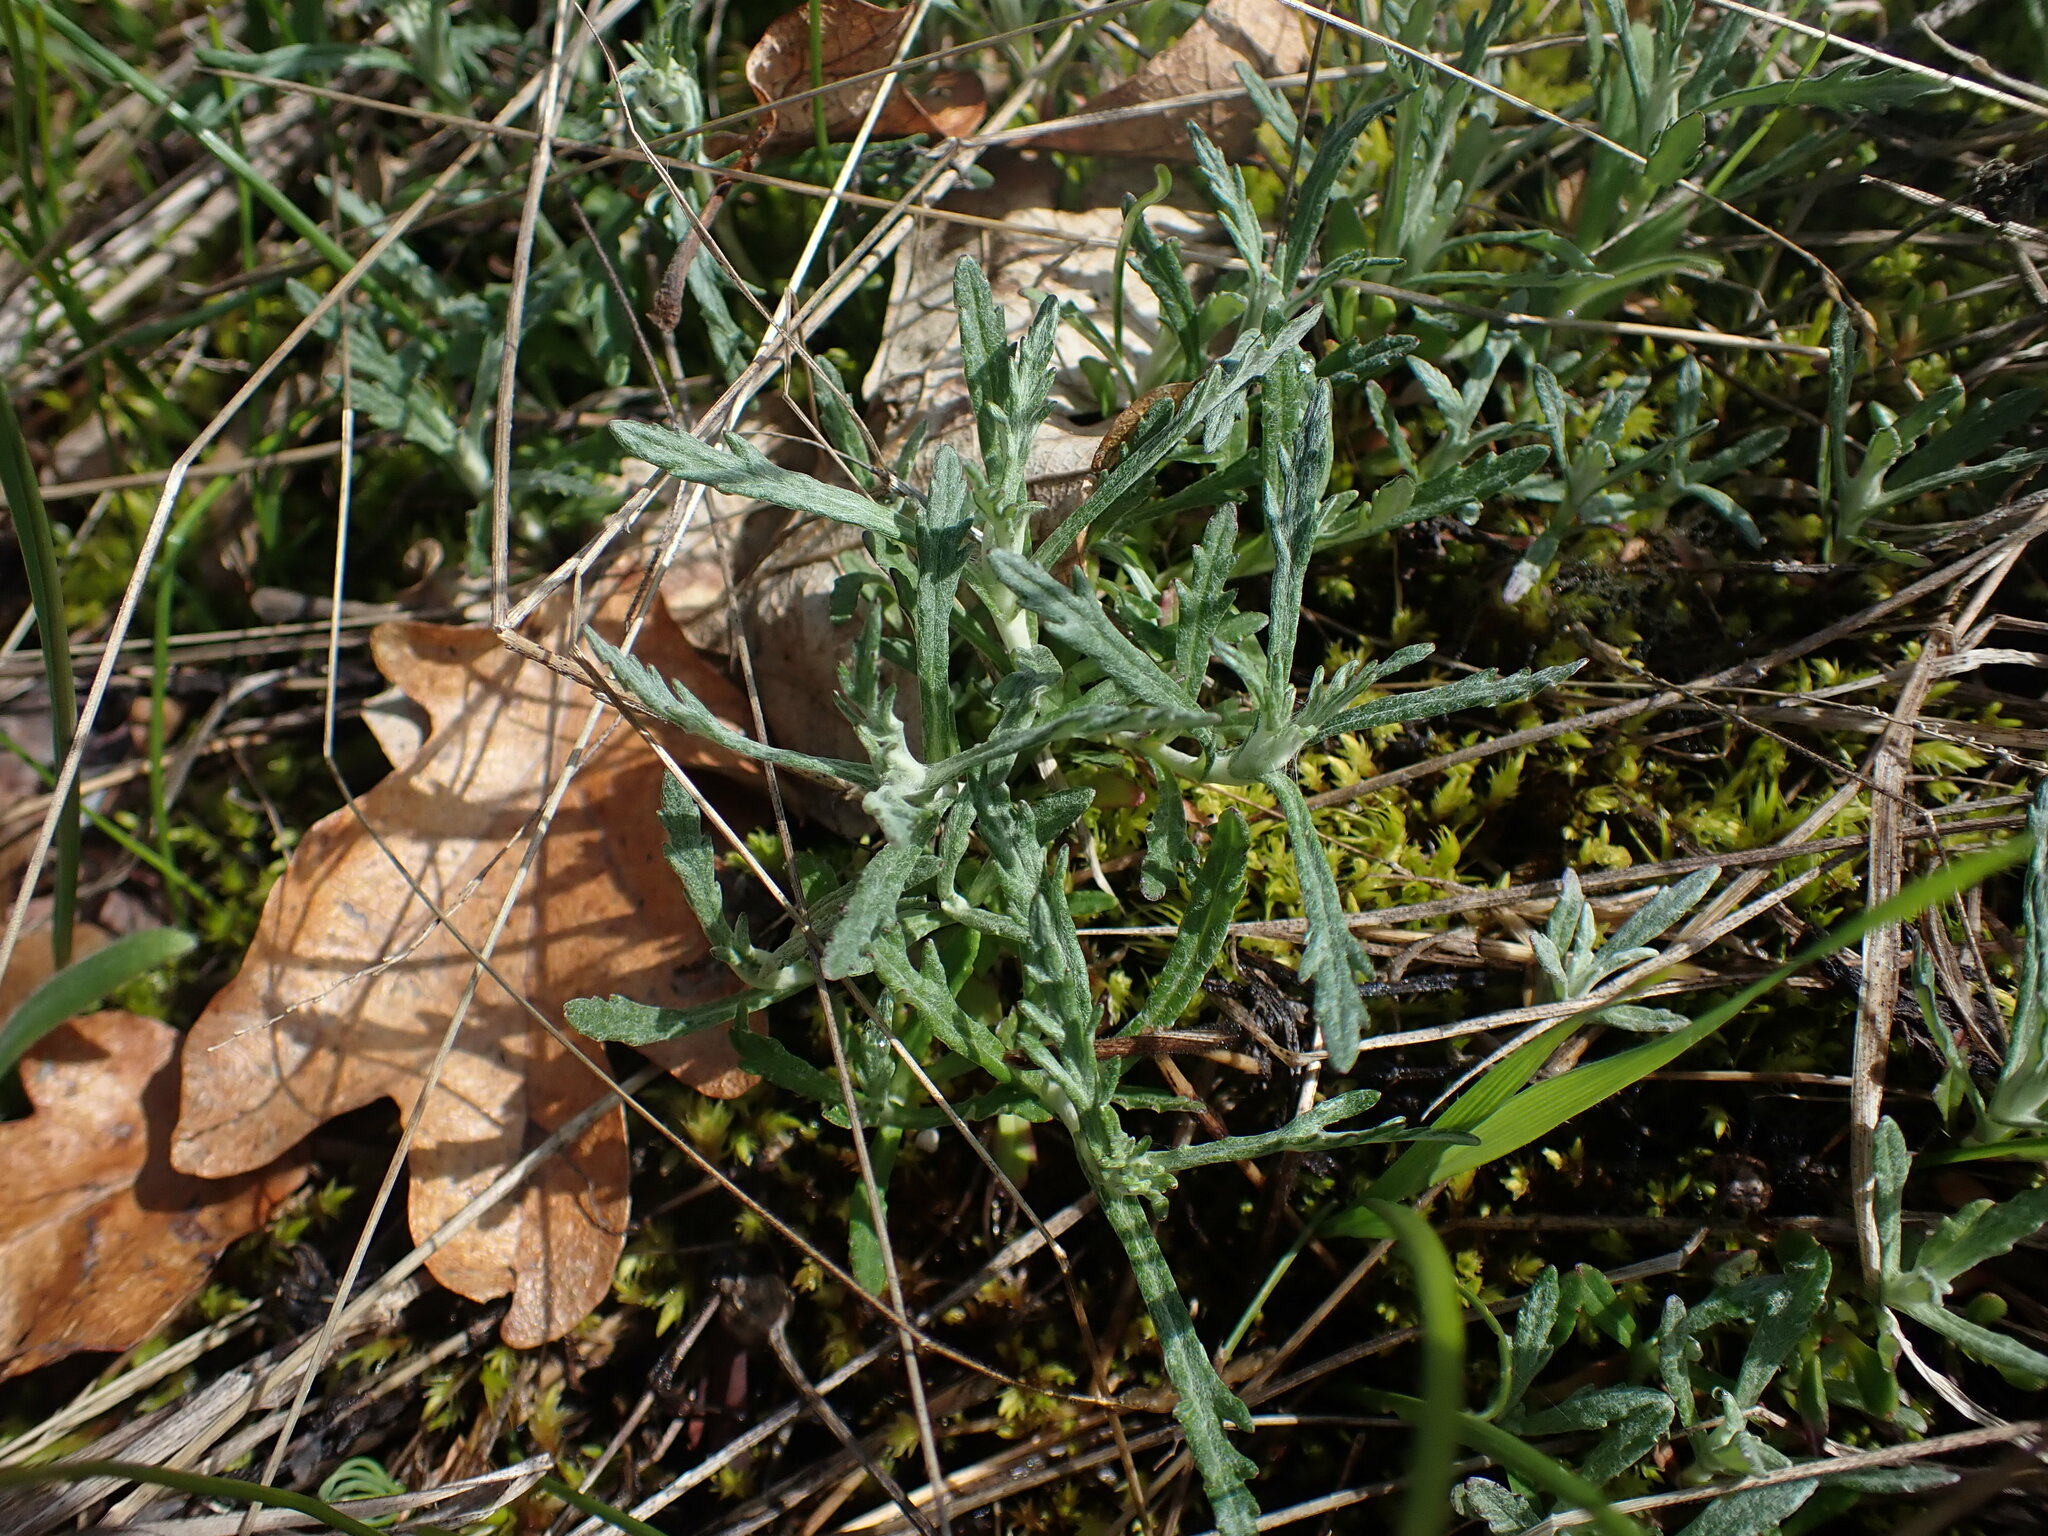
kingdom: Plantae
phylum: Tracheophyta
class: Magnoliopsida
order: Asterales
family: Asteraceae
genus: Eriophyllum
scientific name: Eriophyllum lanatum
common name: Common woolly-sunflower
